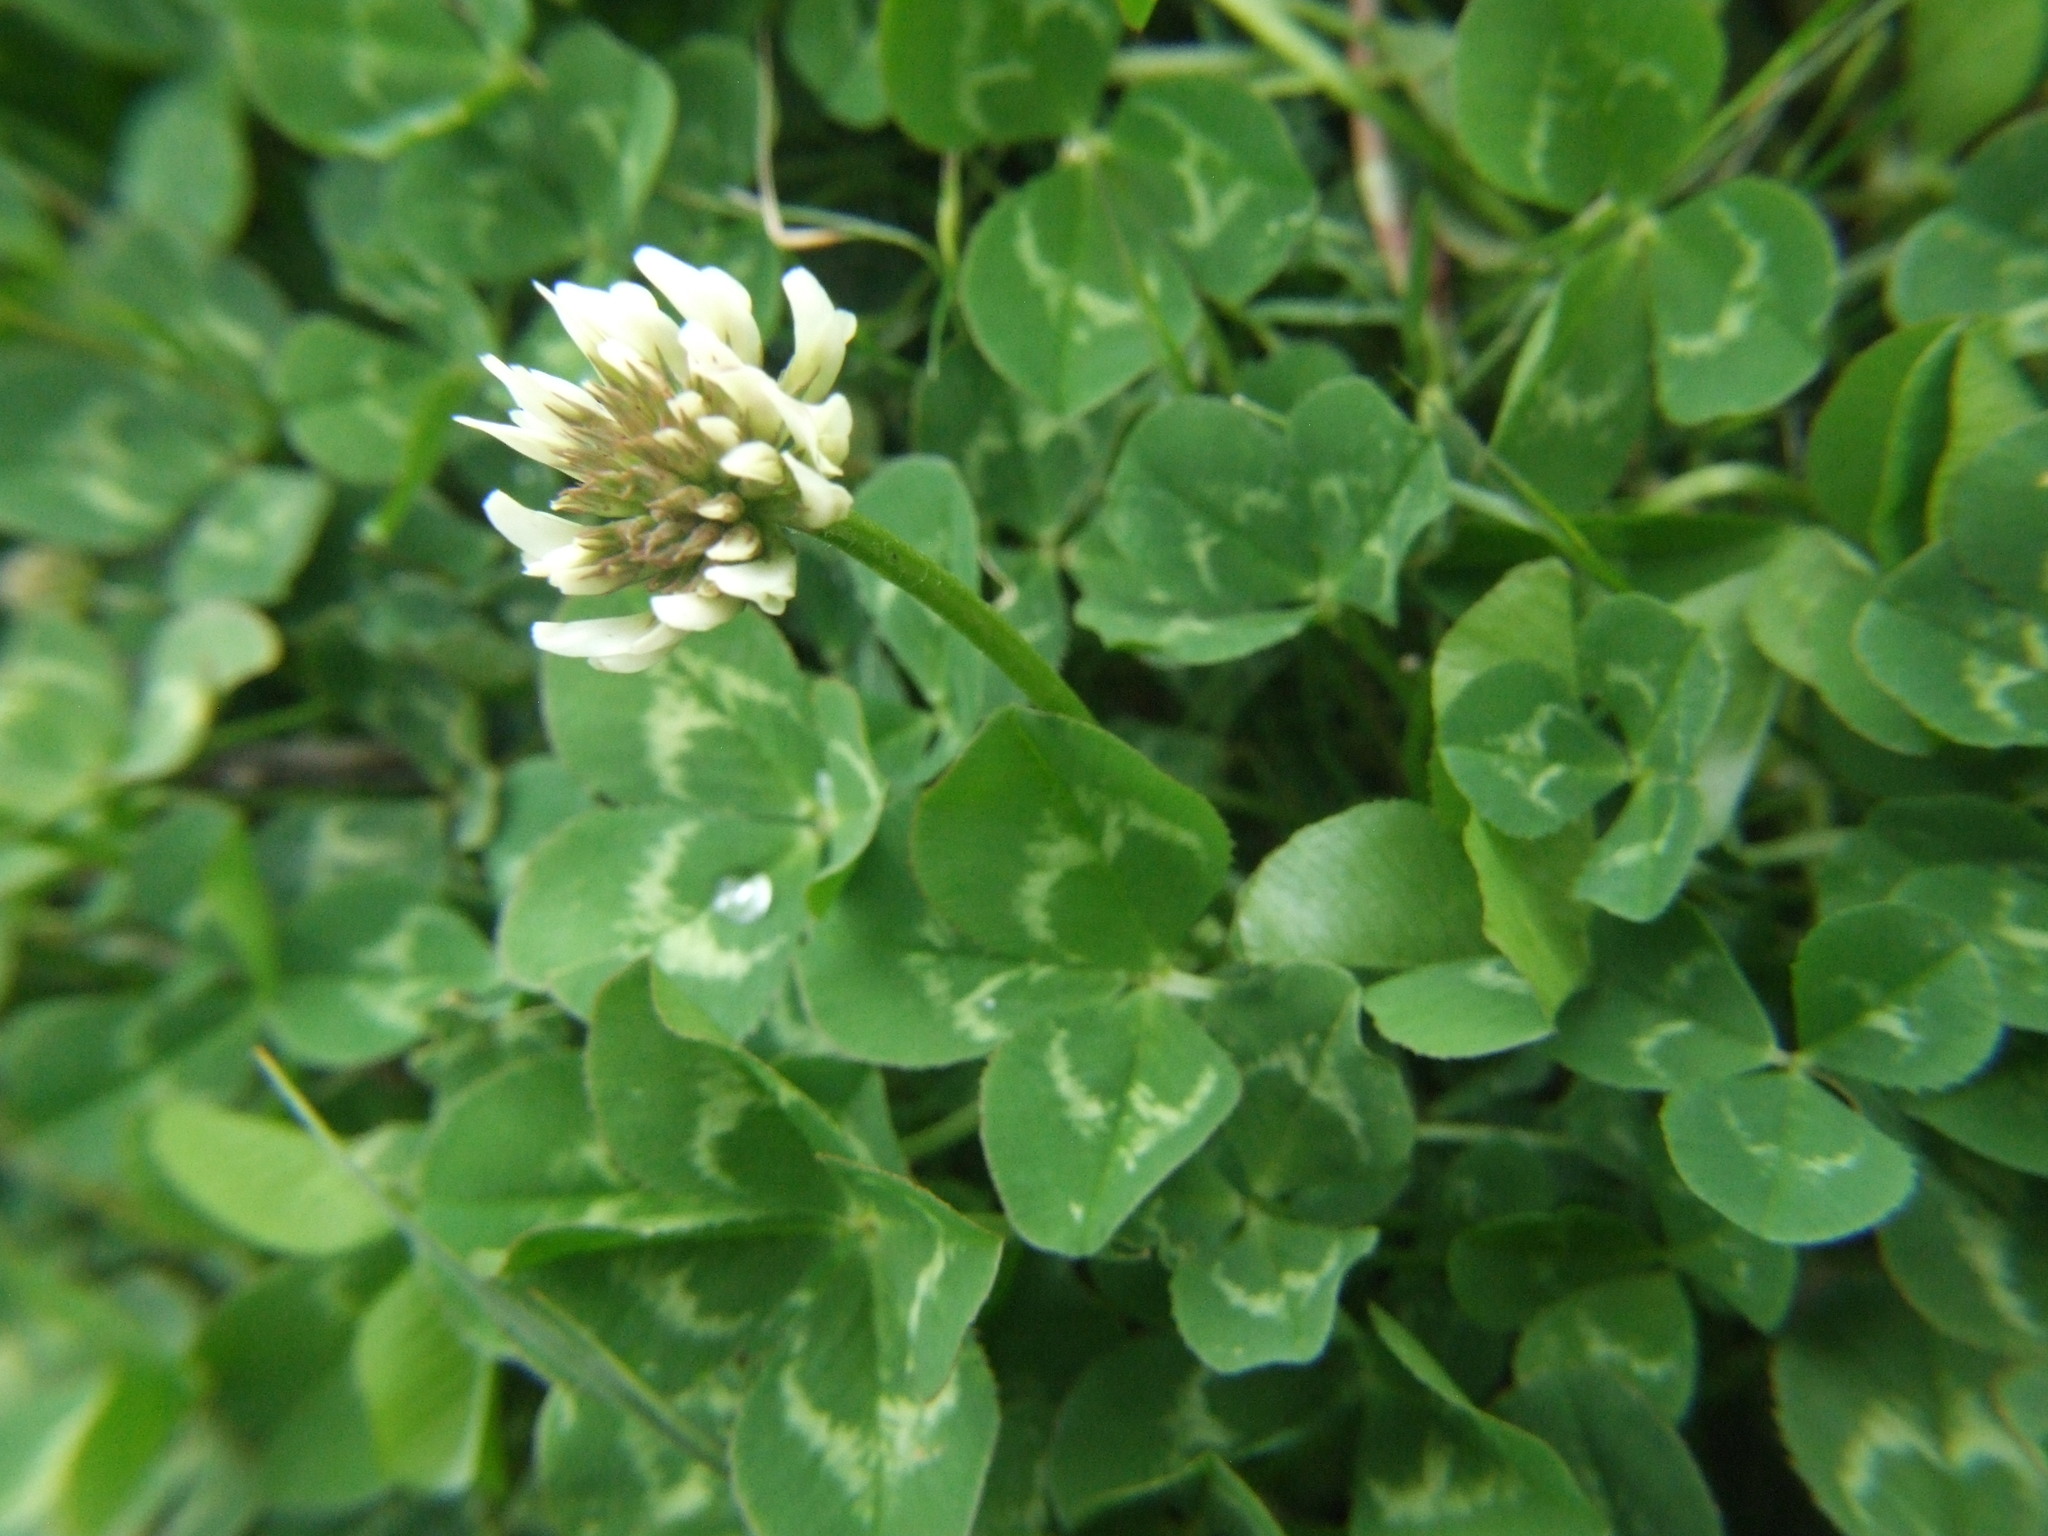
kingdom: Plantae
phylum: Tracheophyta
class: Magnoliopsida
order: Fabales
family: Fabaceae
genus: Trifolium
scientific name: Trifolium repens
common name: White clover
